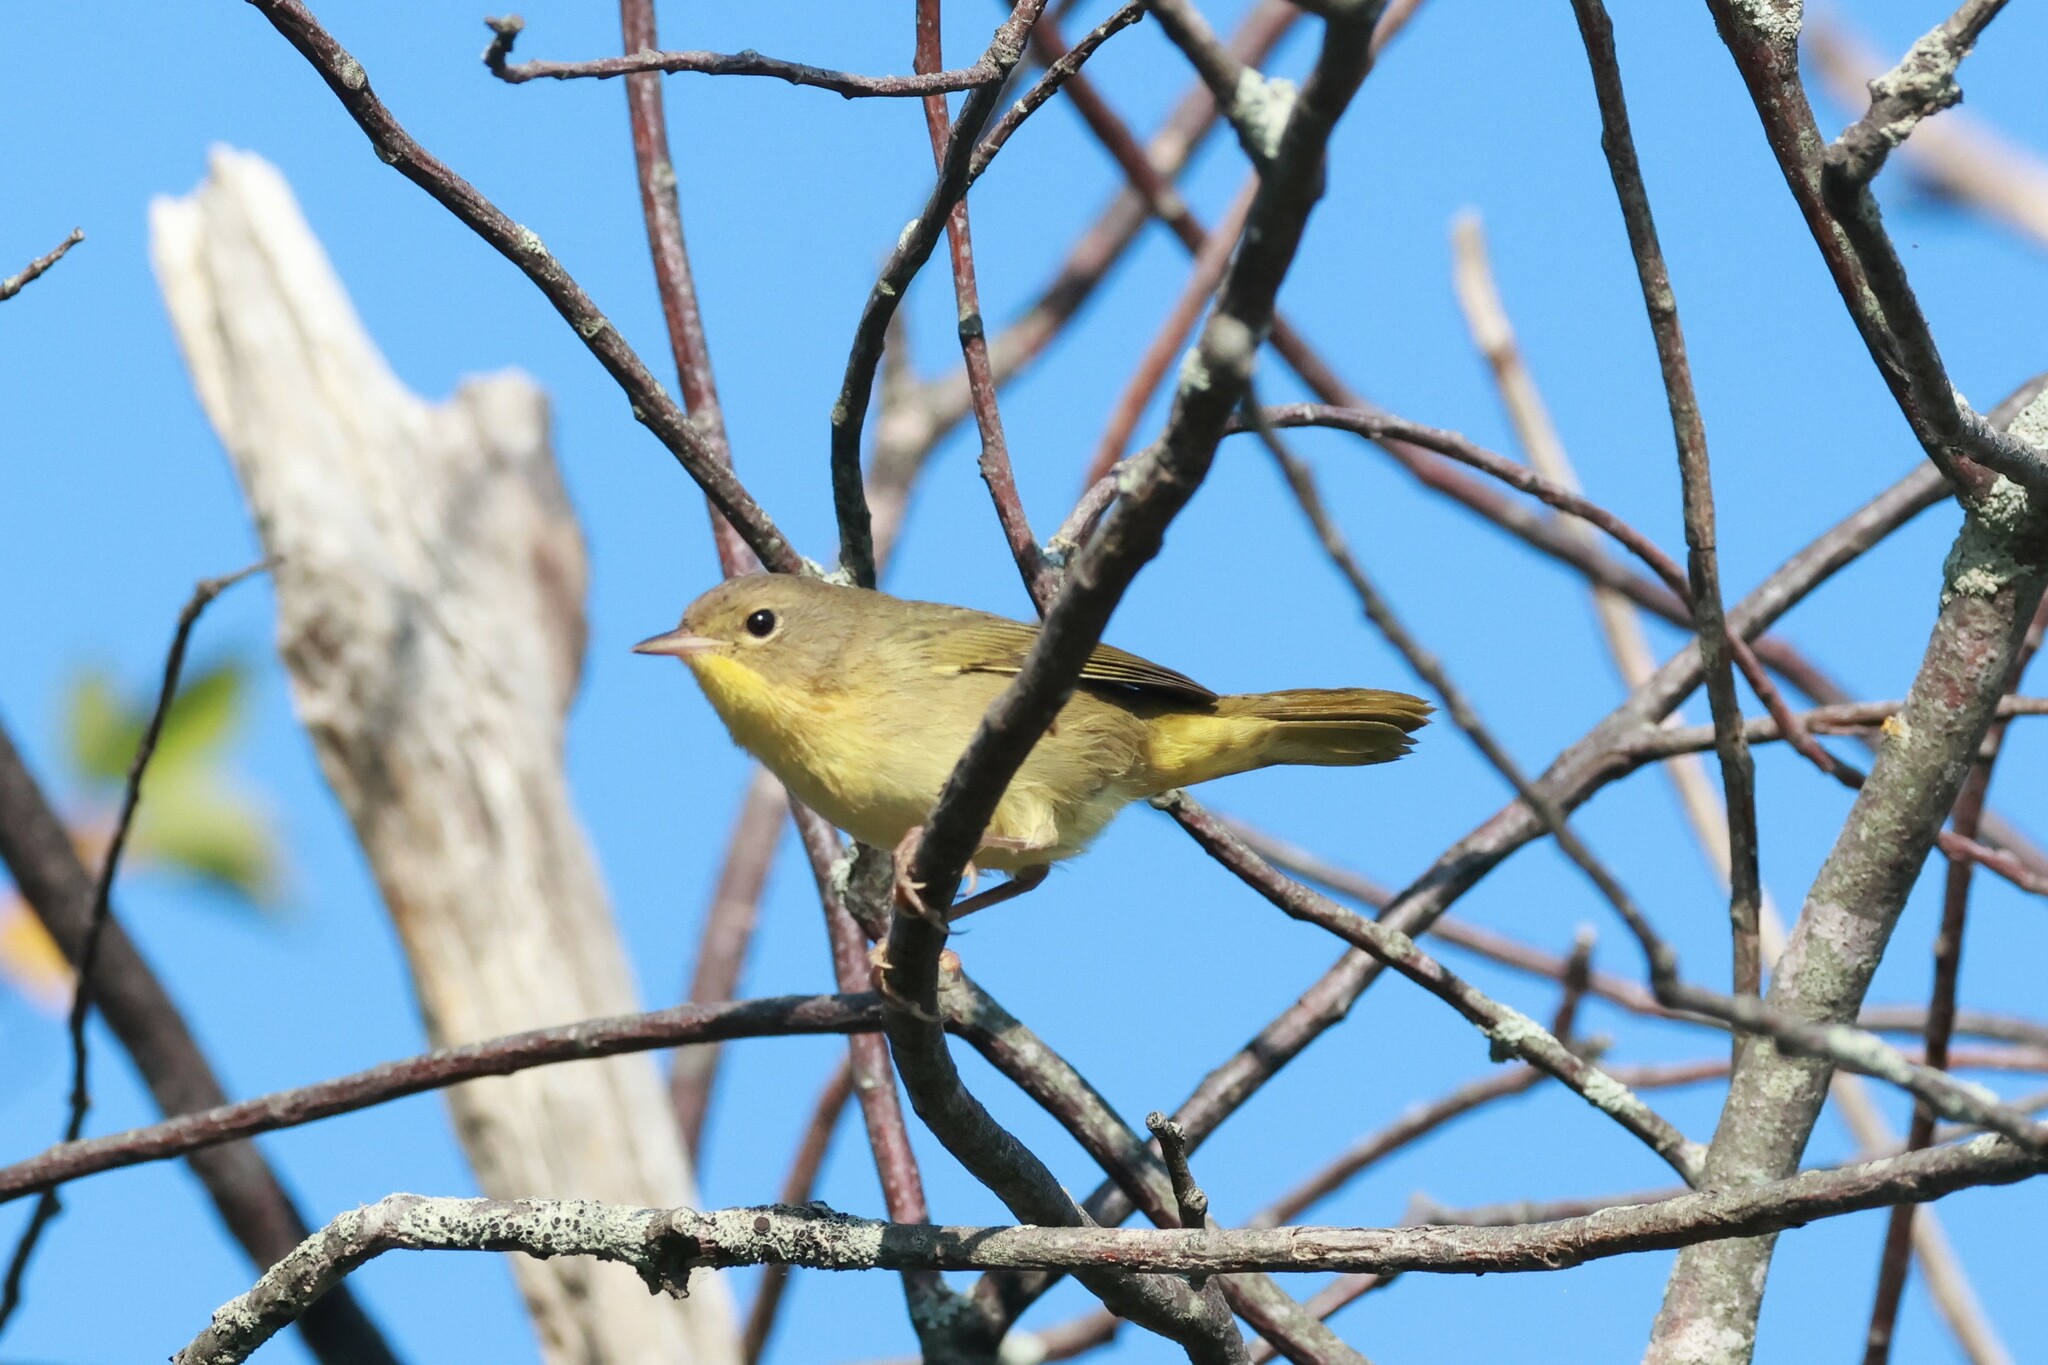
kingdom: Animalia
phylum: Chordata
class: Aves
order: Passeriformes
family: Parulidae
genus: Geothlypis
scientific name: Geothlypis trichas
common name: Common yellowthroat
